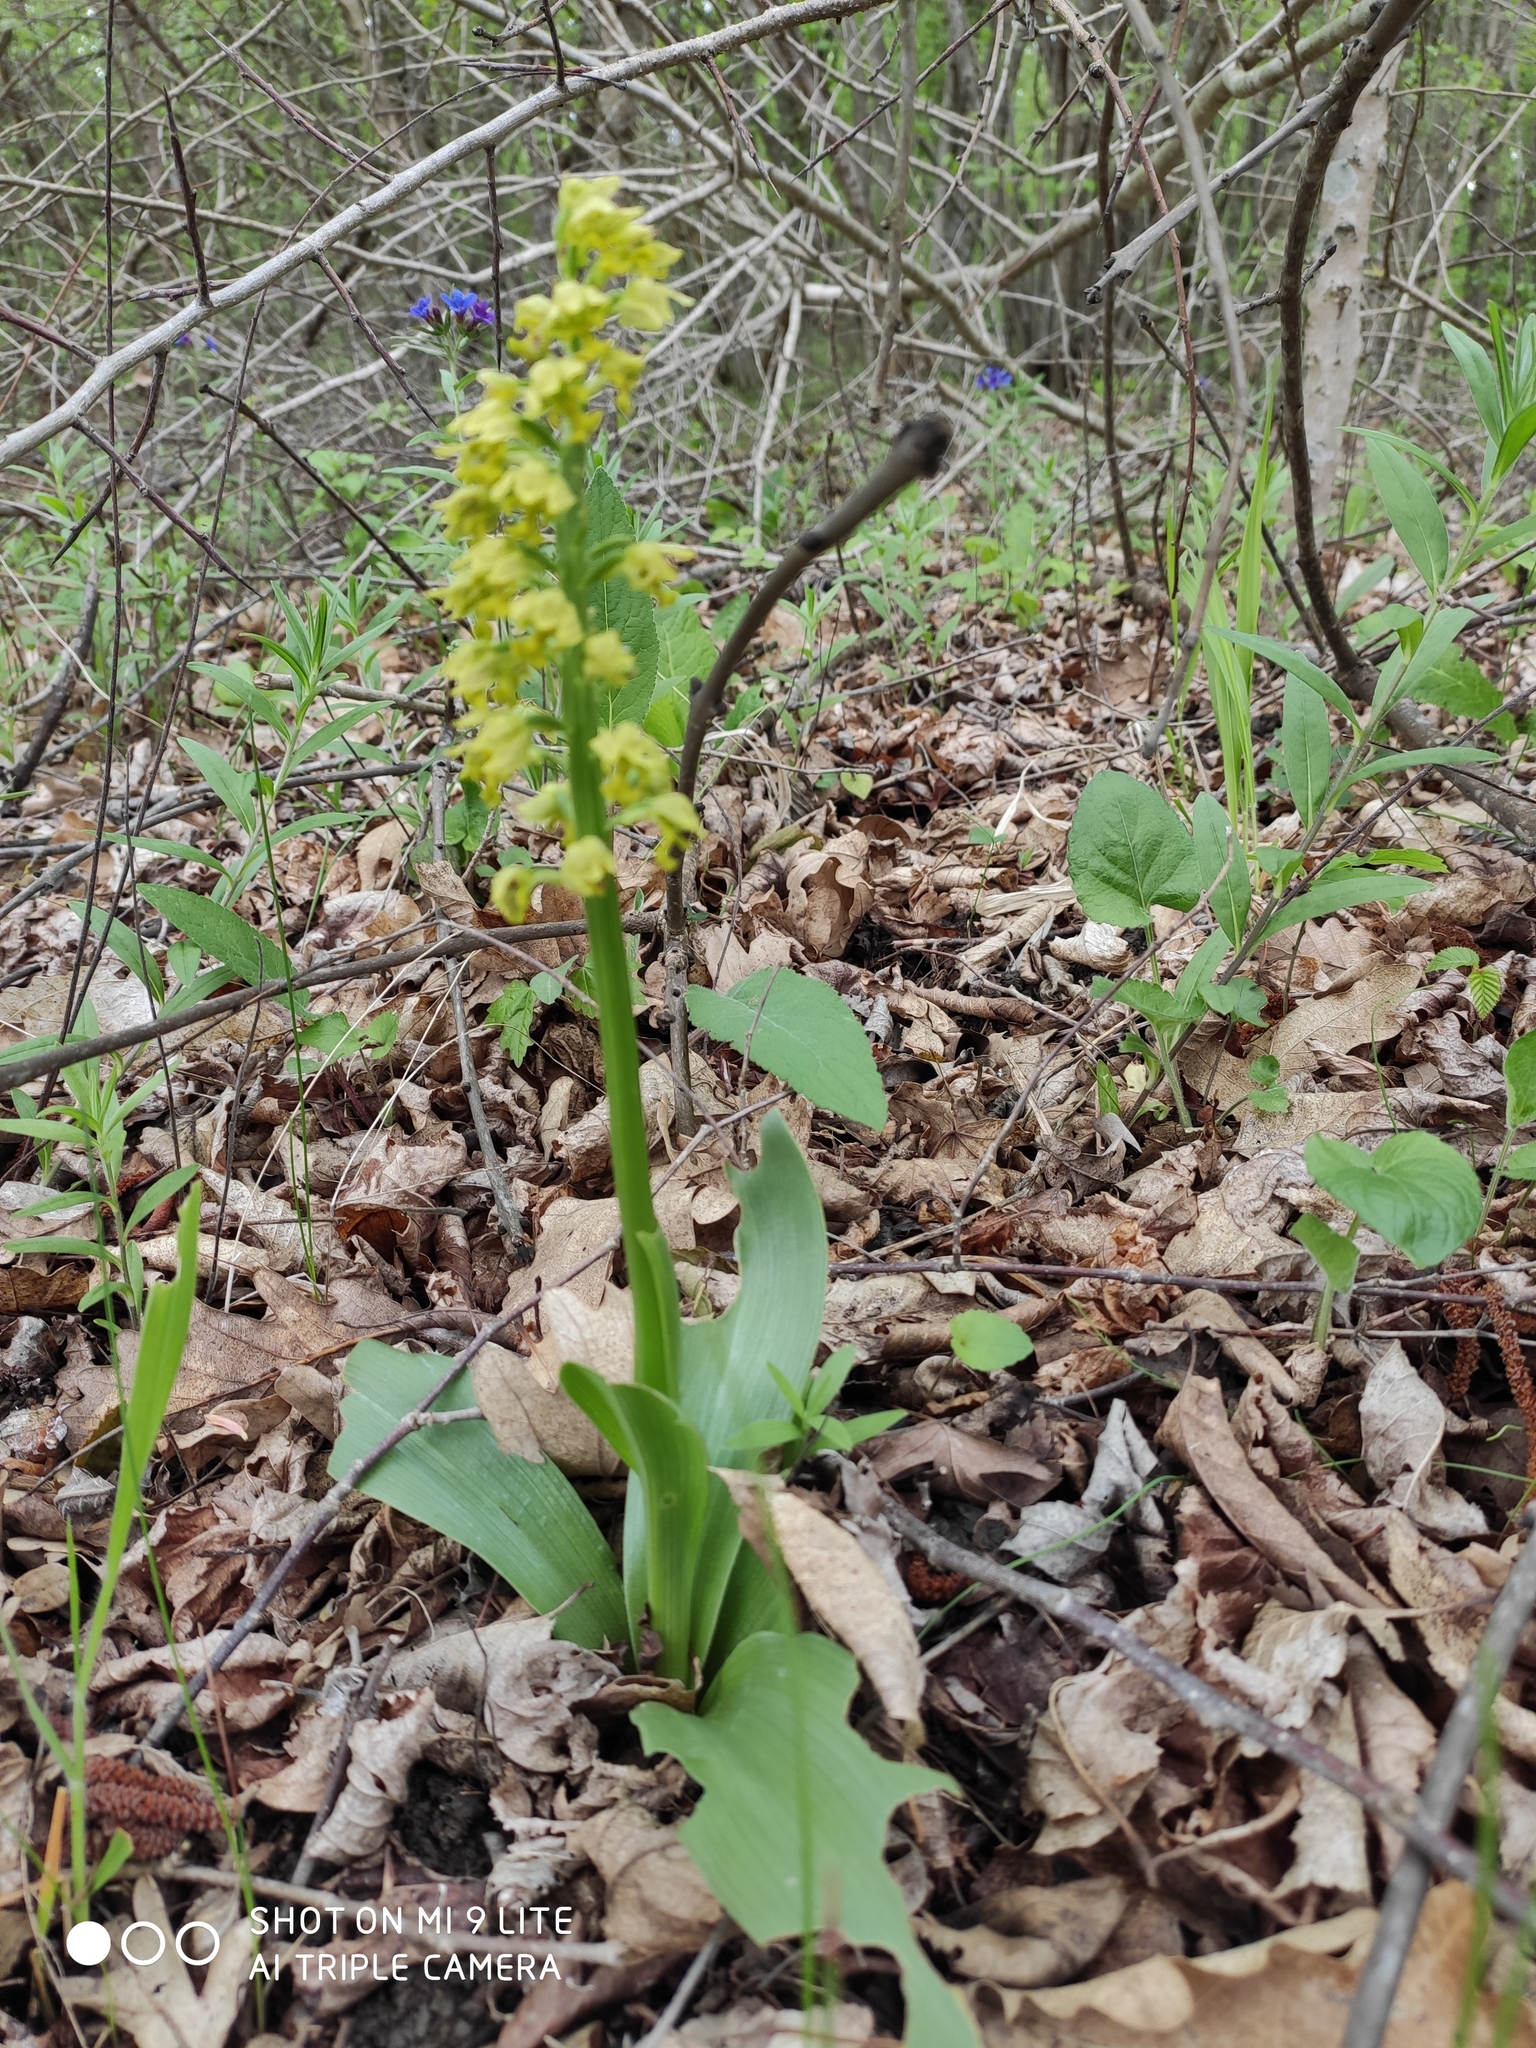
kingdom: Plantae
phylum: Tracheophyta
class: Liliopsida
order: Asparagales
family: Orchidaceae
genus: Orchis
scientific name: Orchis punctulata
